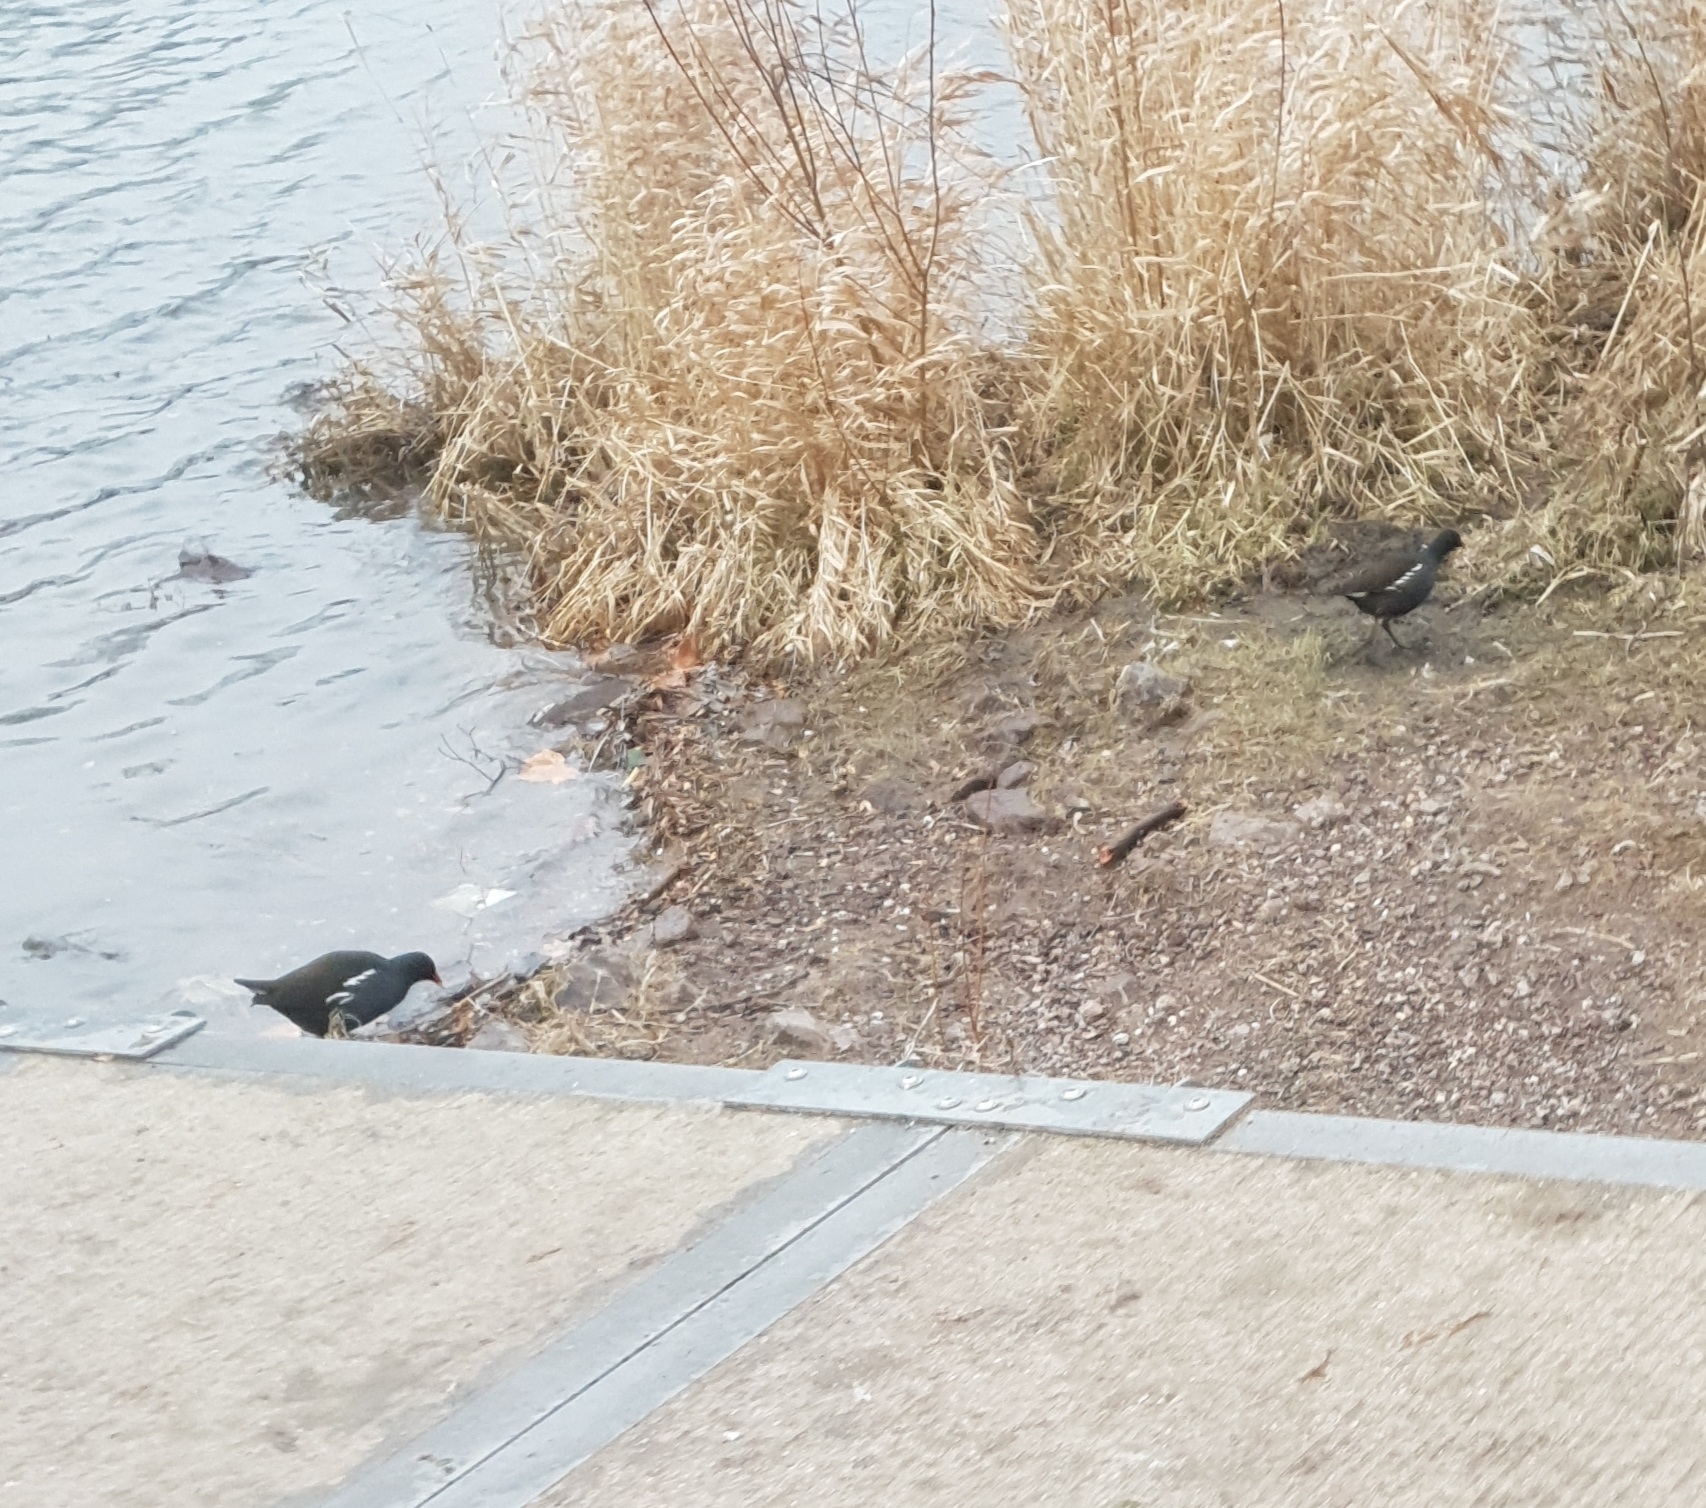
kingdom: Animalia
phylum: Chordata
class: Aves
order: Gruiformes
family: Rallidae
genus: Gallinula
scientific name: Gallinula chloropus
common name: Common moorhen
